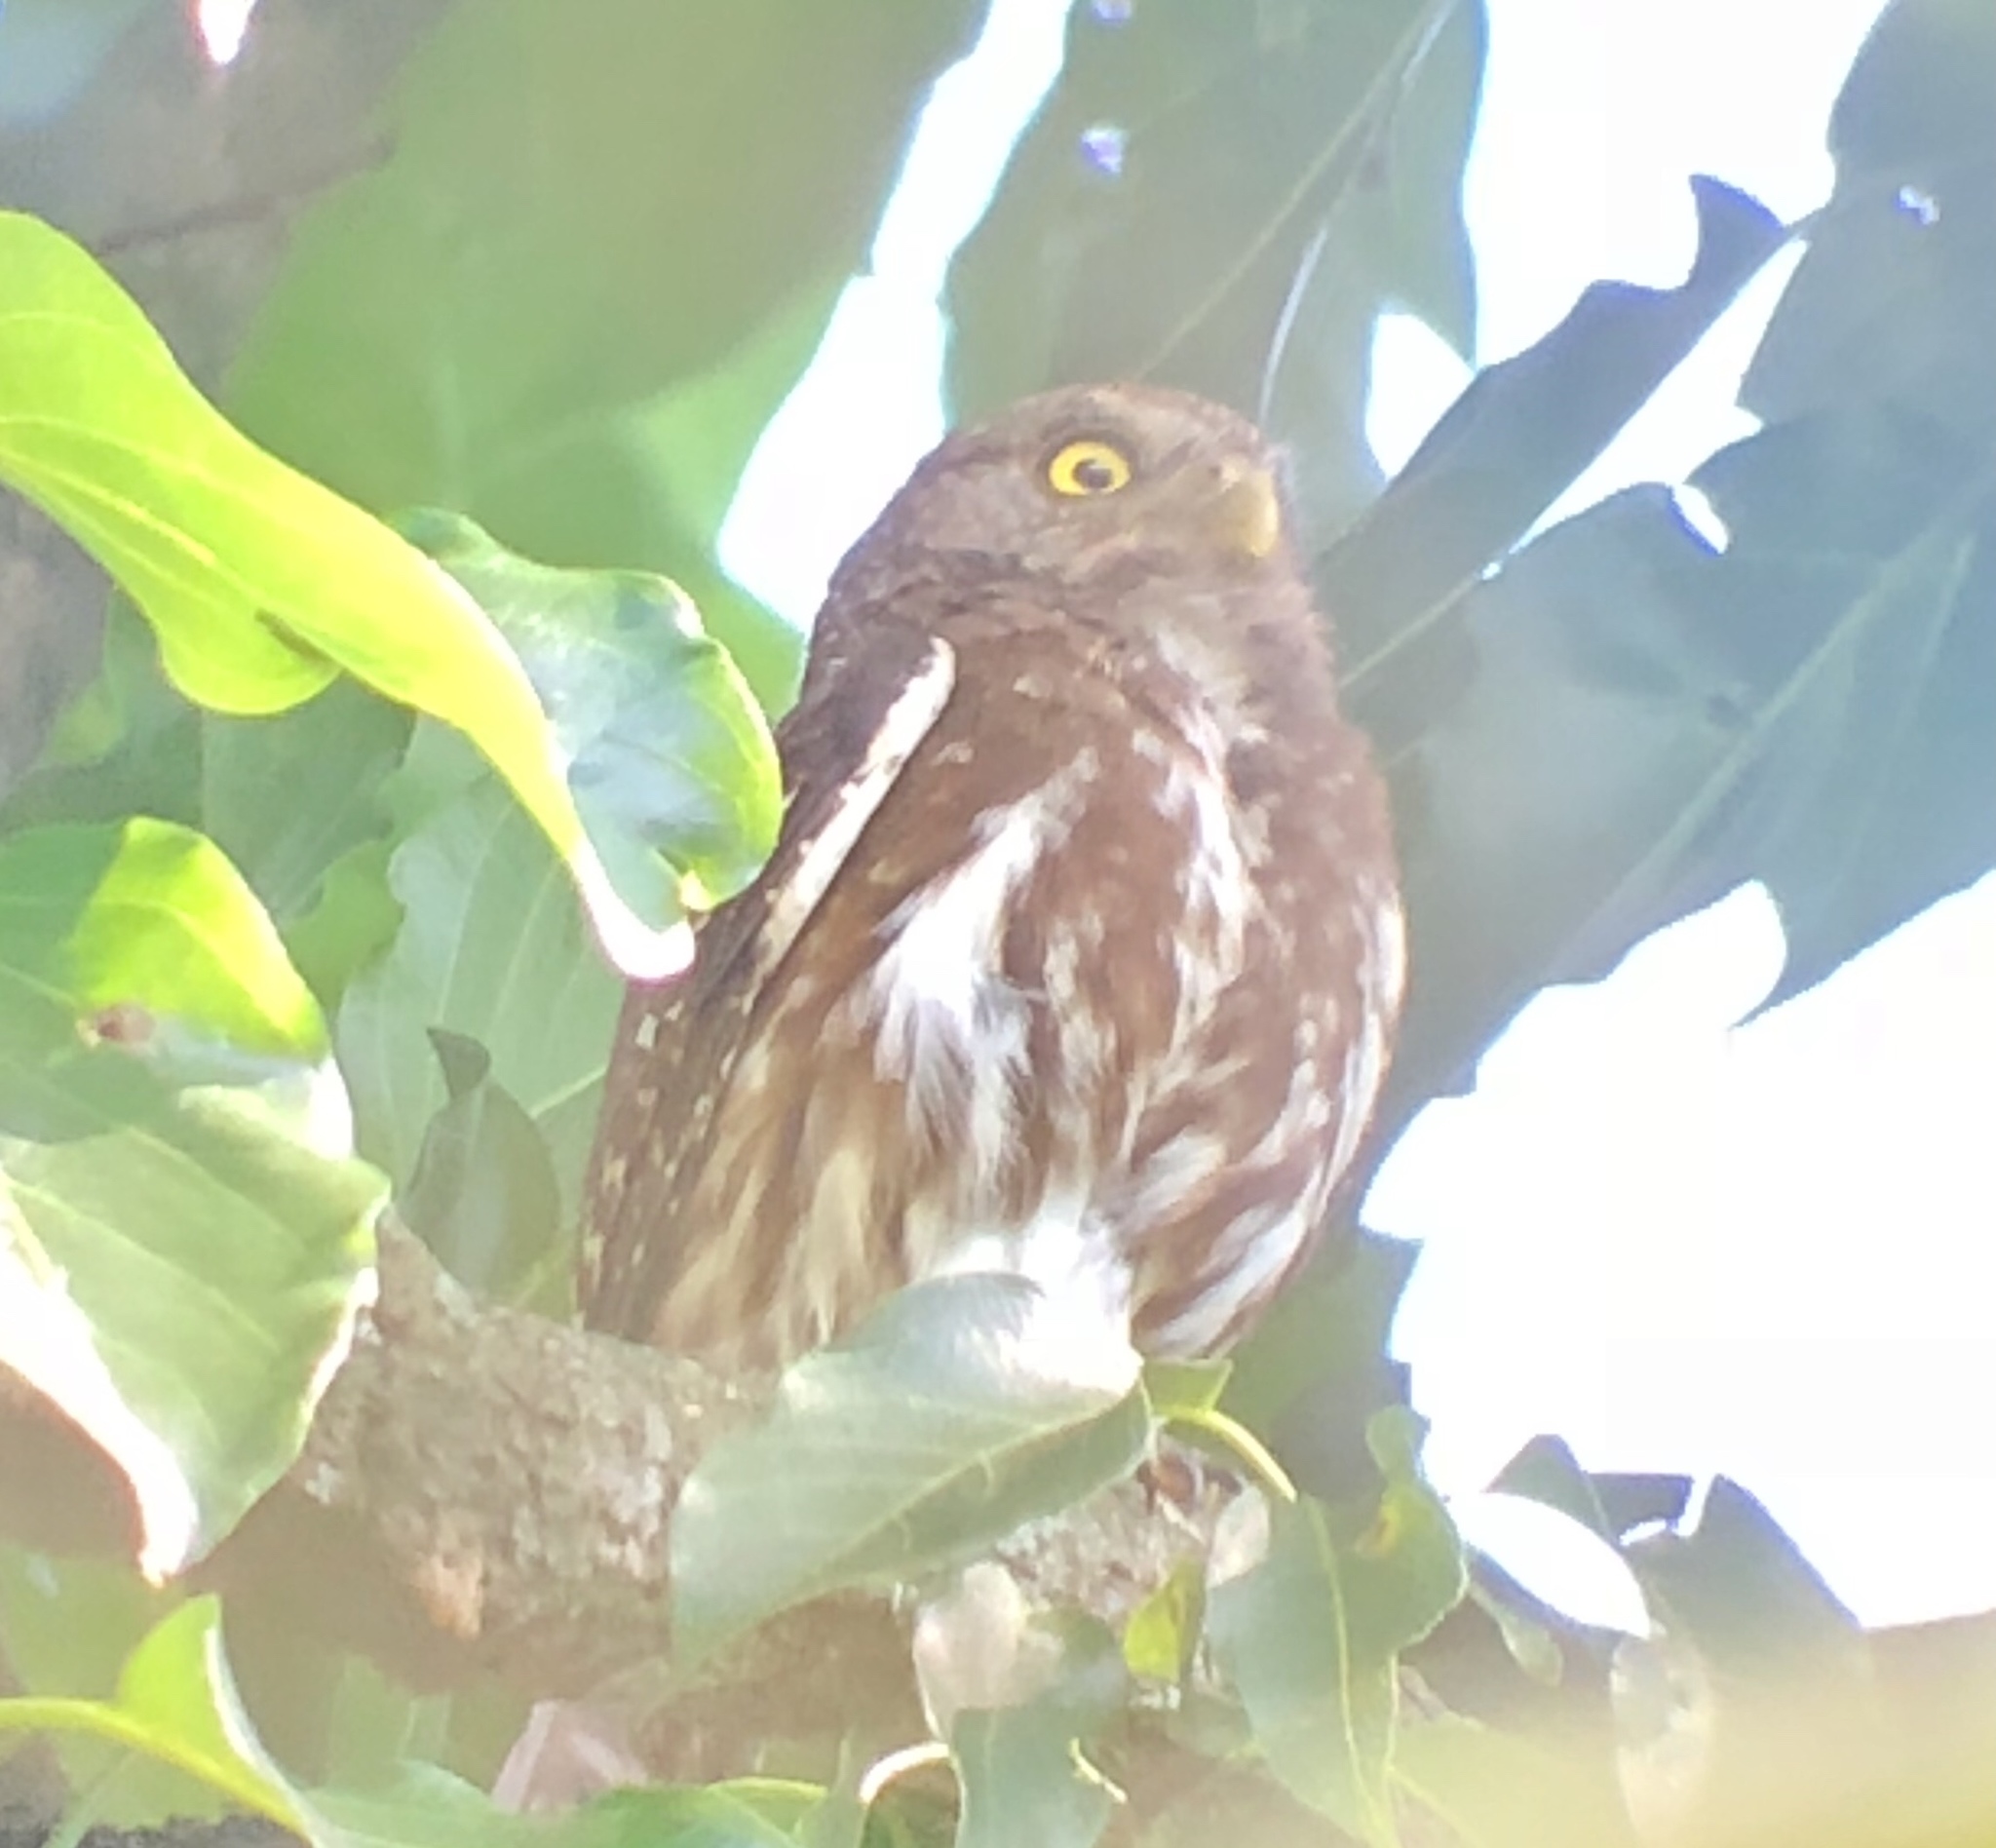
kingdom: Animalia
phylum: Chordata
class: Aves
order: Strigiformes
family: Strigidae
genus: Glaucidium
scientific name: Glaucidium brasilianum
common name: Ferruginous pygmy-owl
